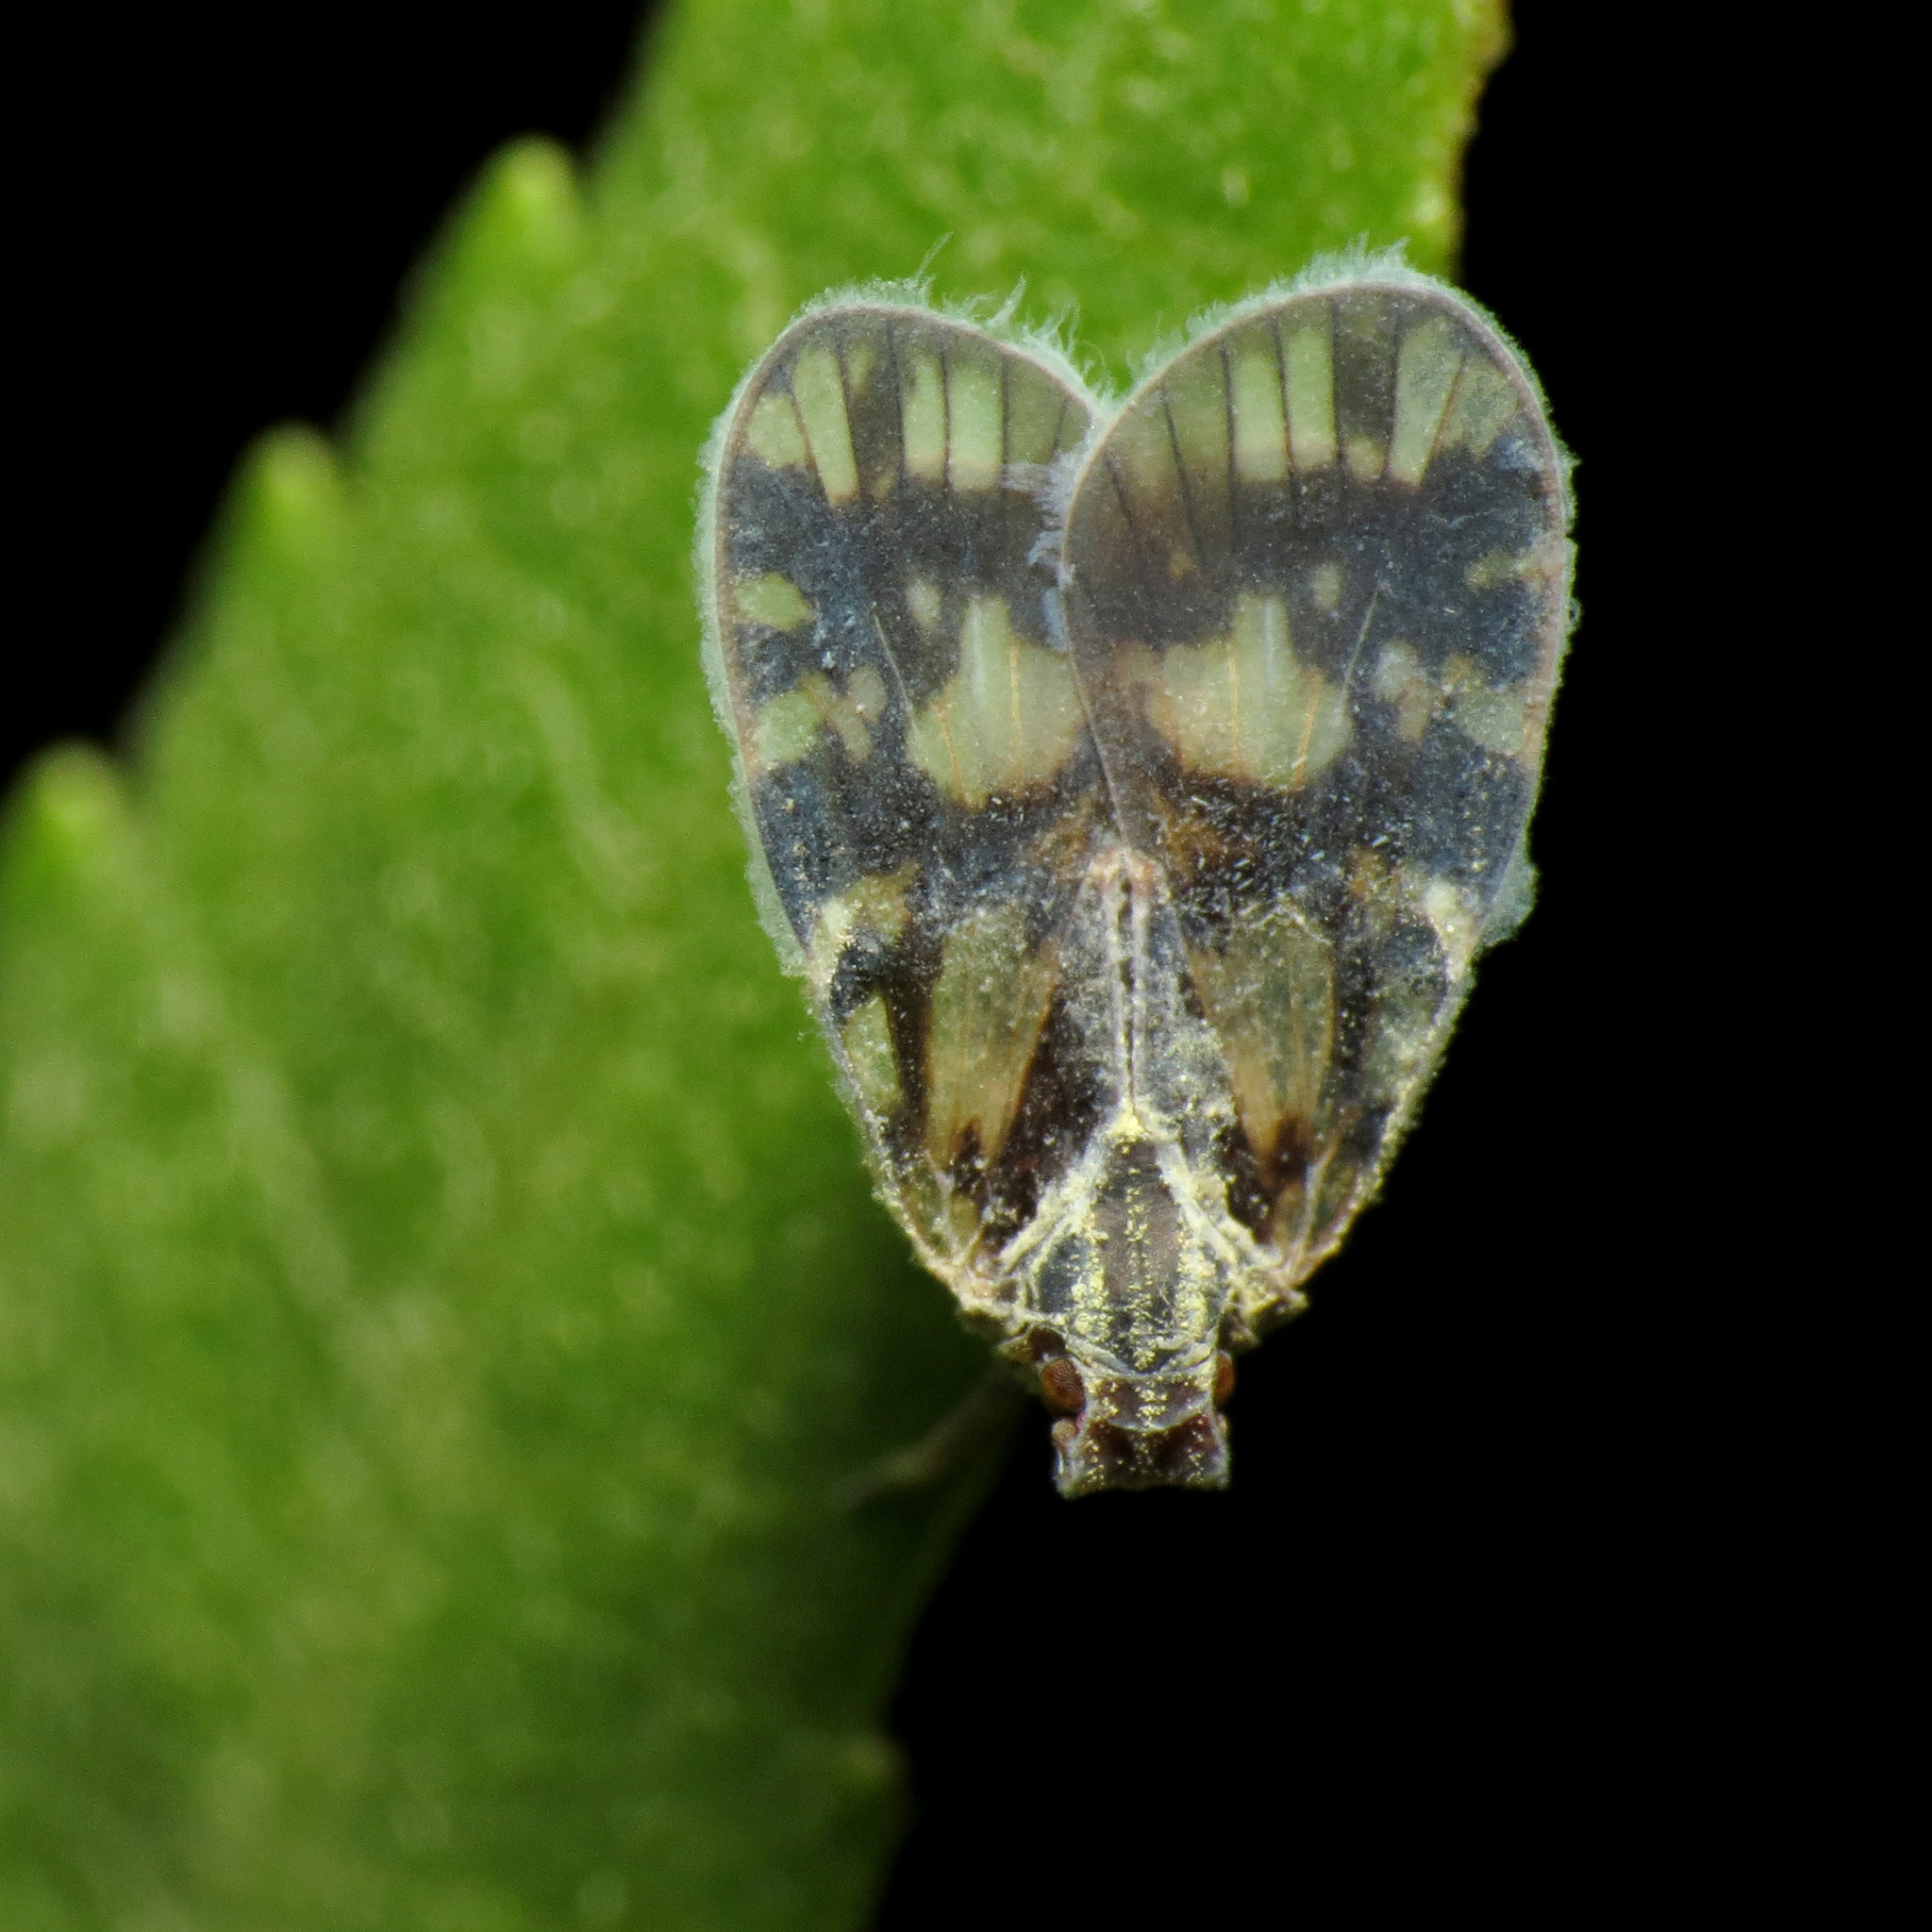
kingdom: Animalia
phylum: Arthropoda
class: Insecta
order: Hemiptera
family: Cixiidae
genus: Bothriocera
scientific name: Bothriocera cognita
